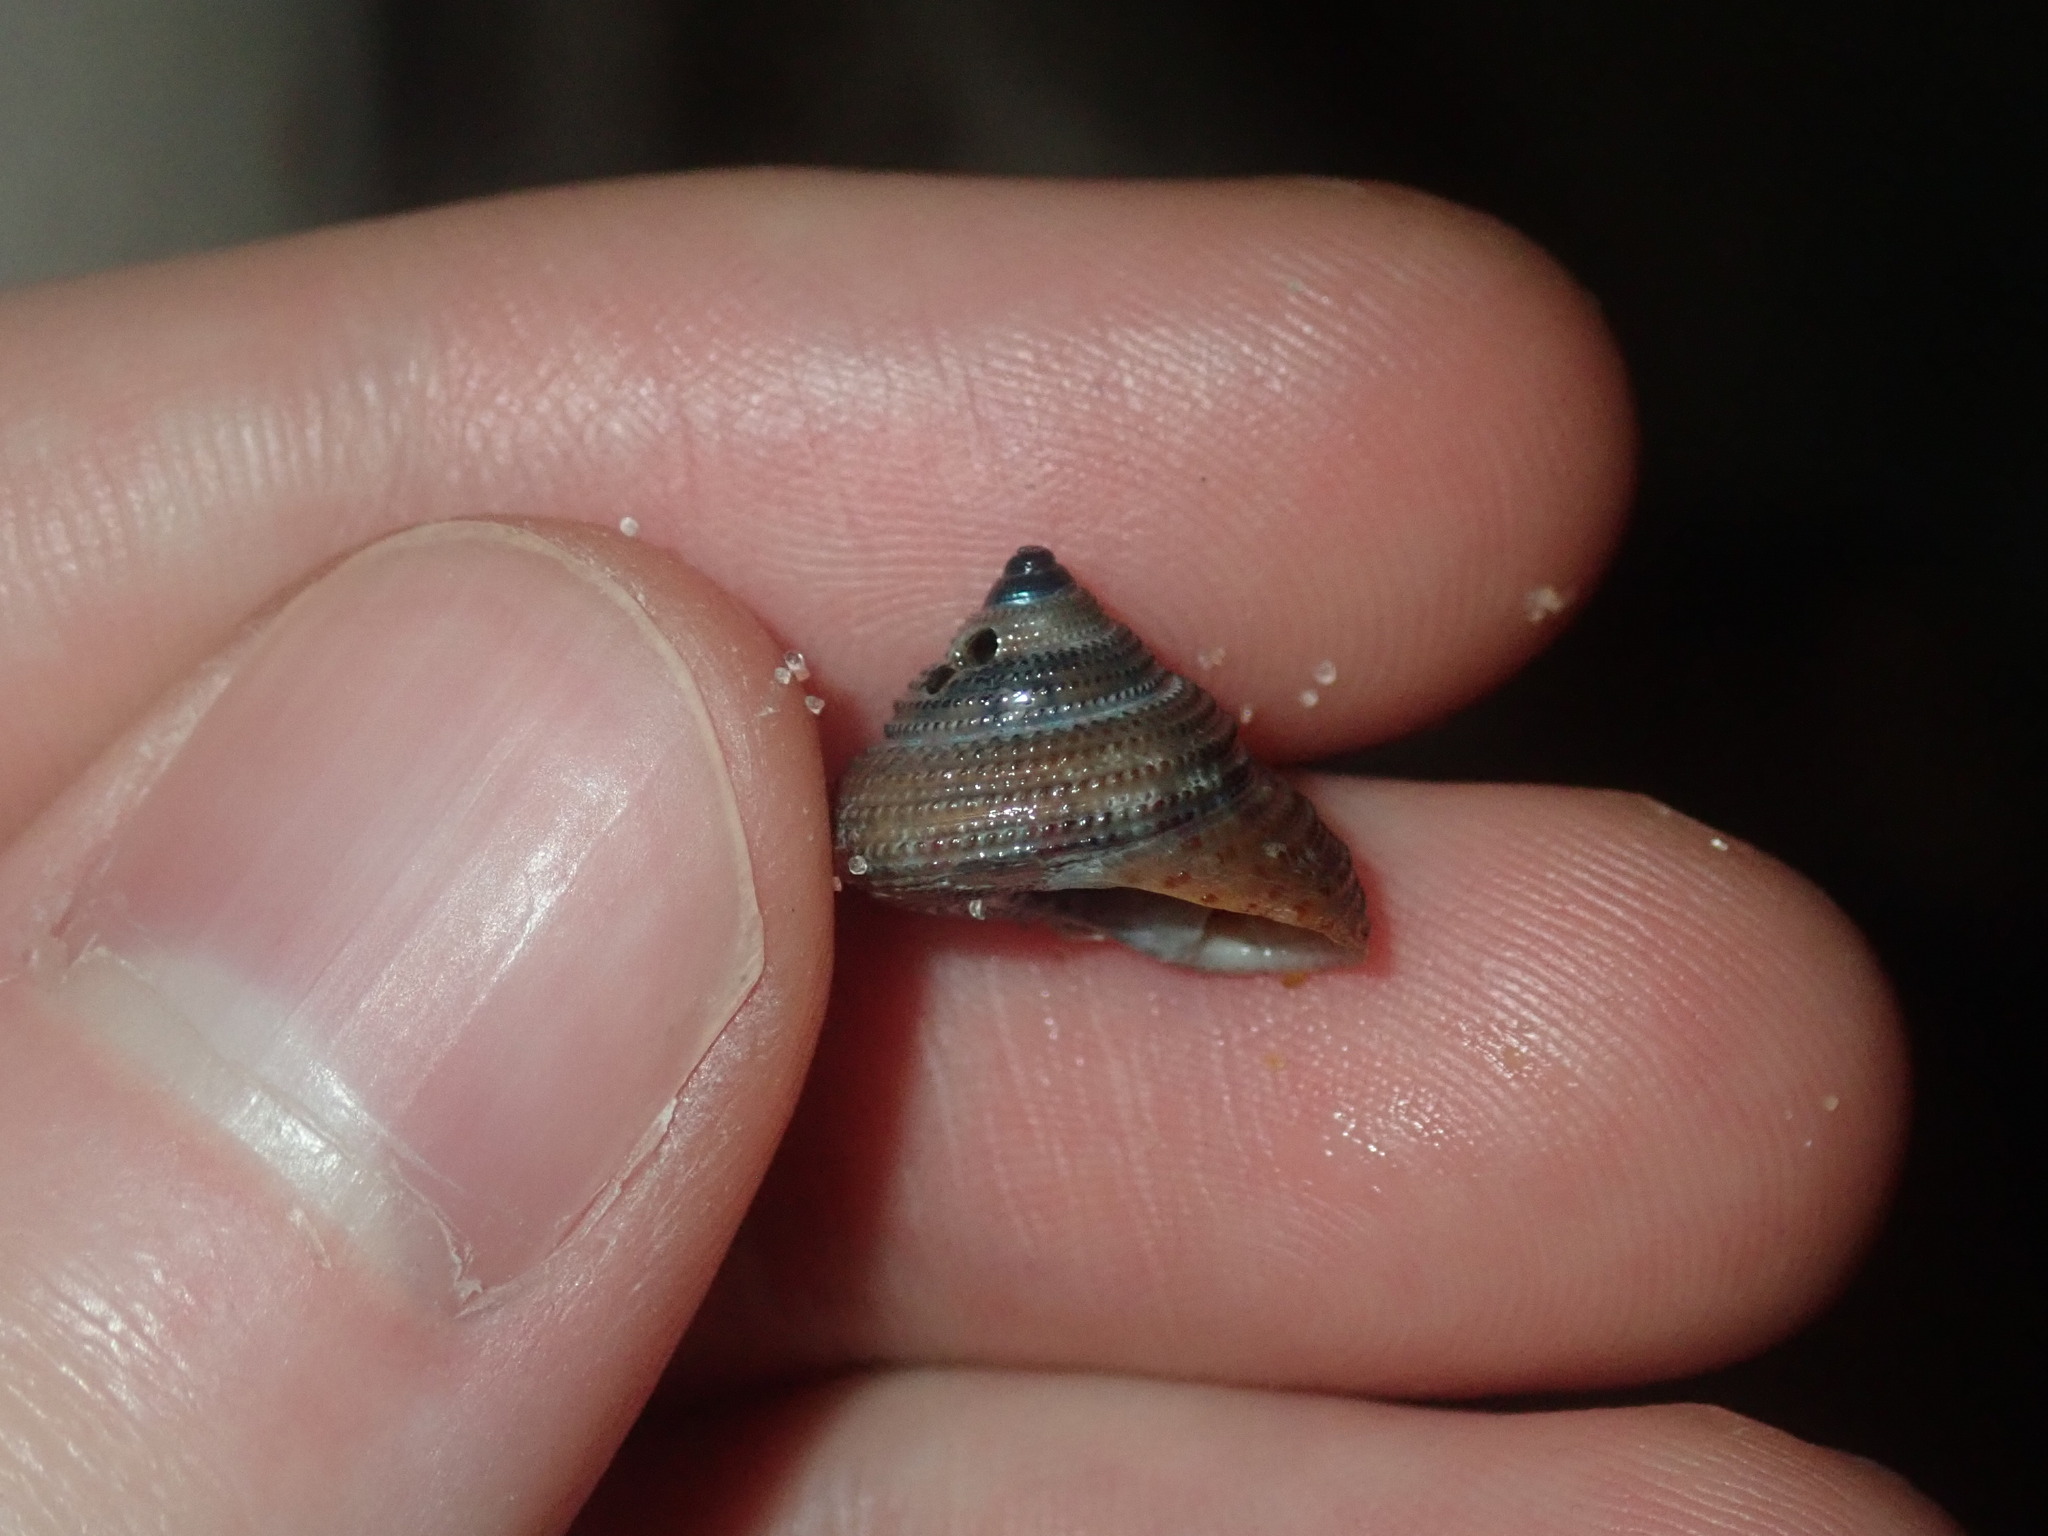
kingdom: Animalia
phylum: Mollusca
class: Gastropoda
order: Trochida
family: Trochidae
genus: Clanculus
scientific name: Clanculus clangulus
